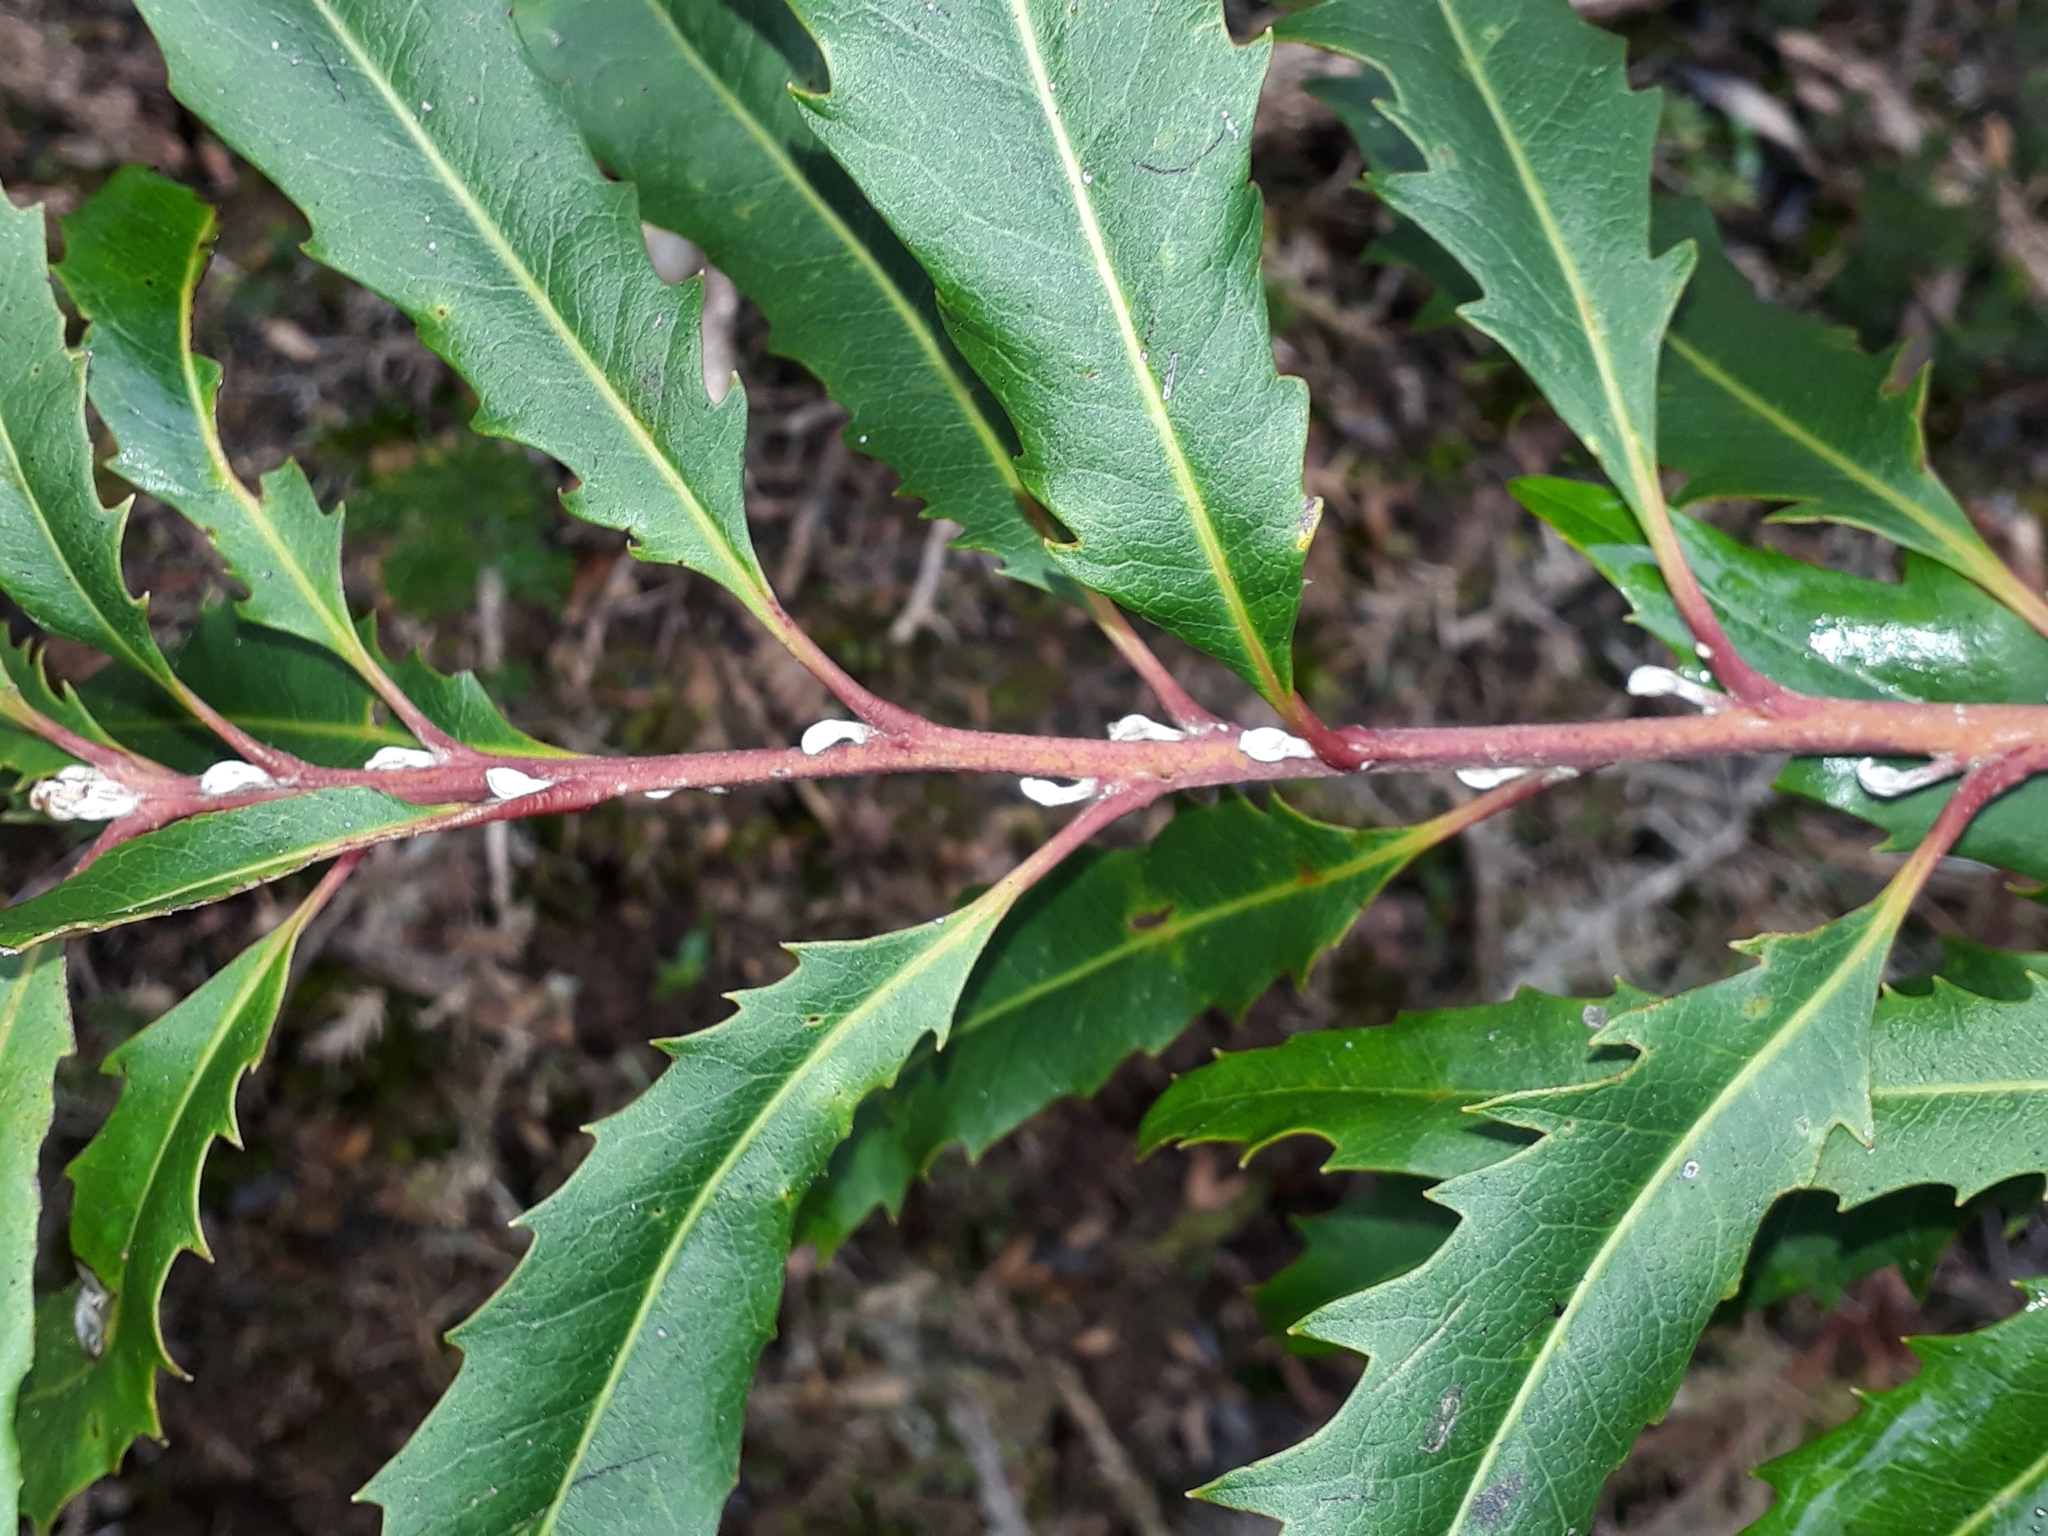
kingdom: Plantae
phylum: Tracheophyta
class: Magnoliopsida
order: Proteales
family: Proteaceae
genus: Lomatia
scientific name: Lomatia fraseri
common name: Forest lomatia
